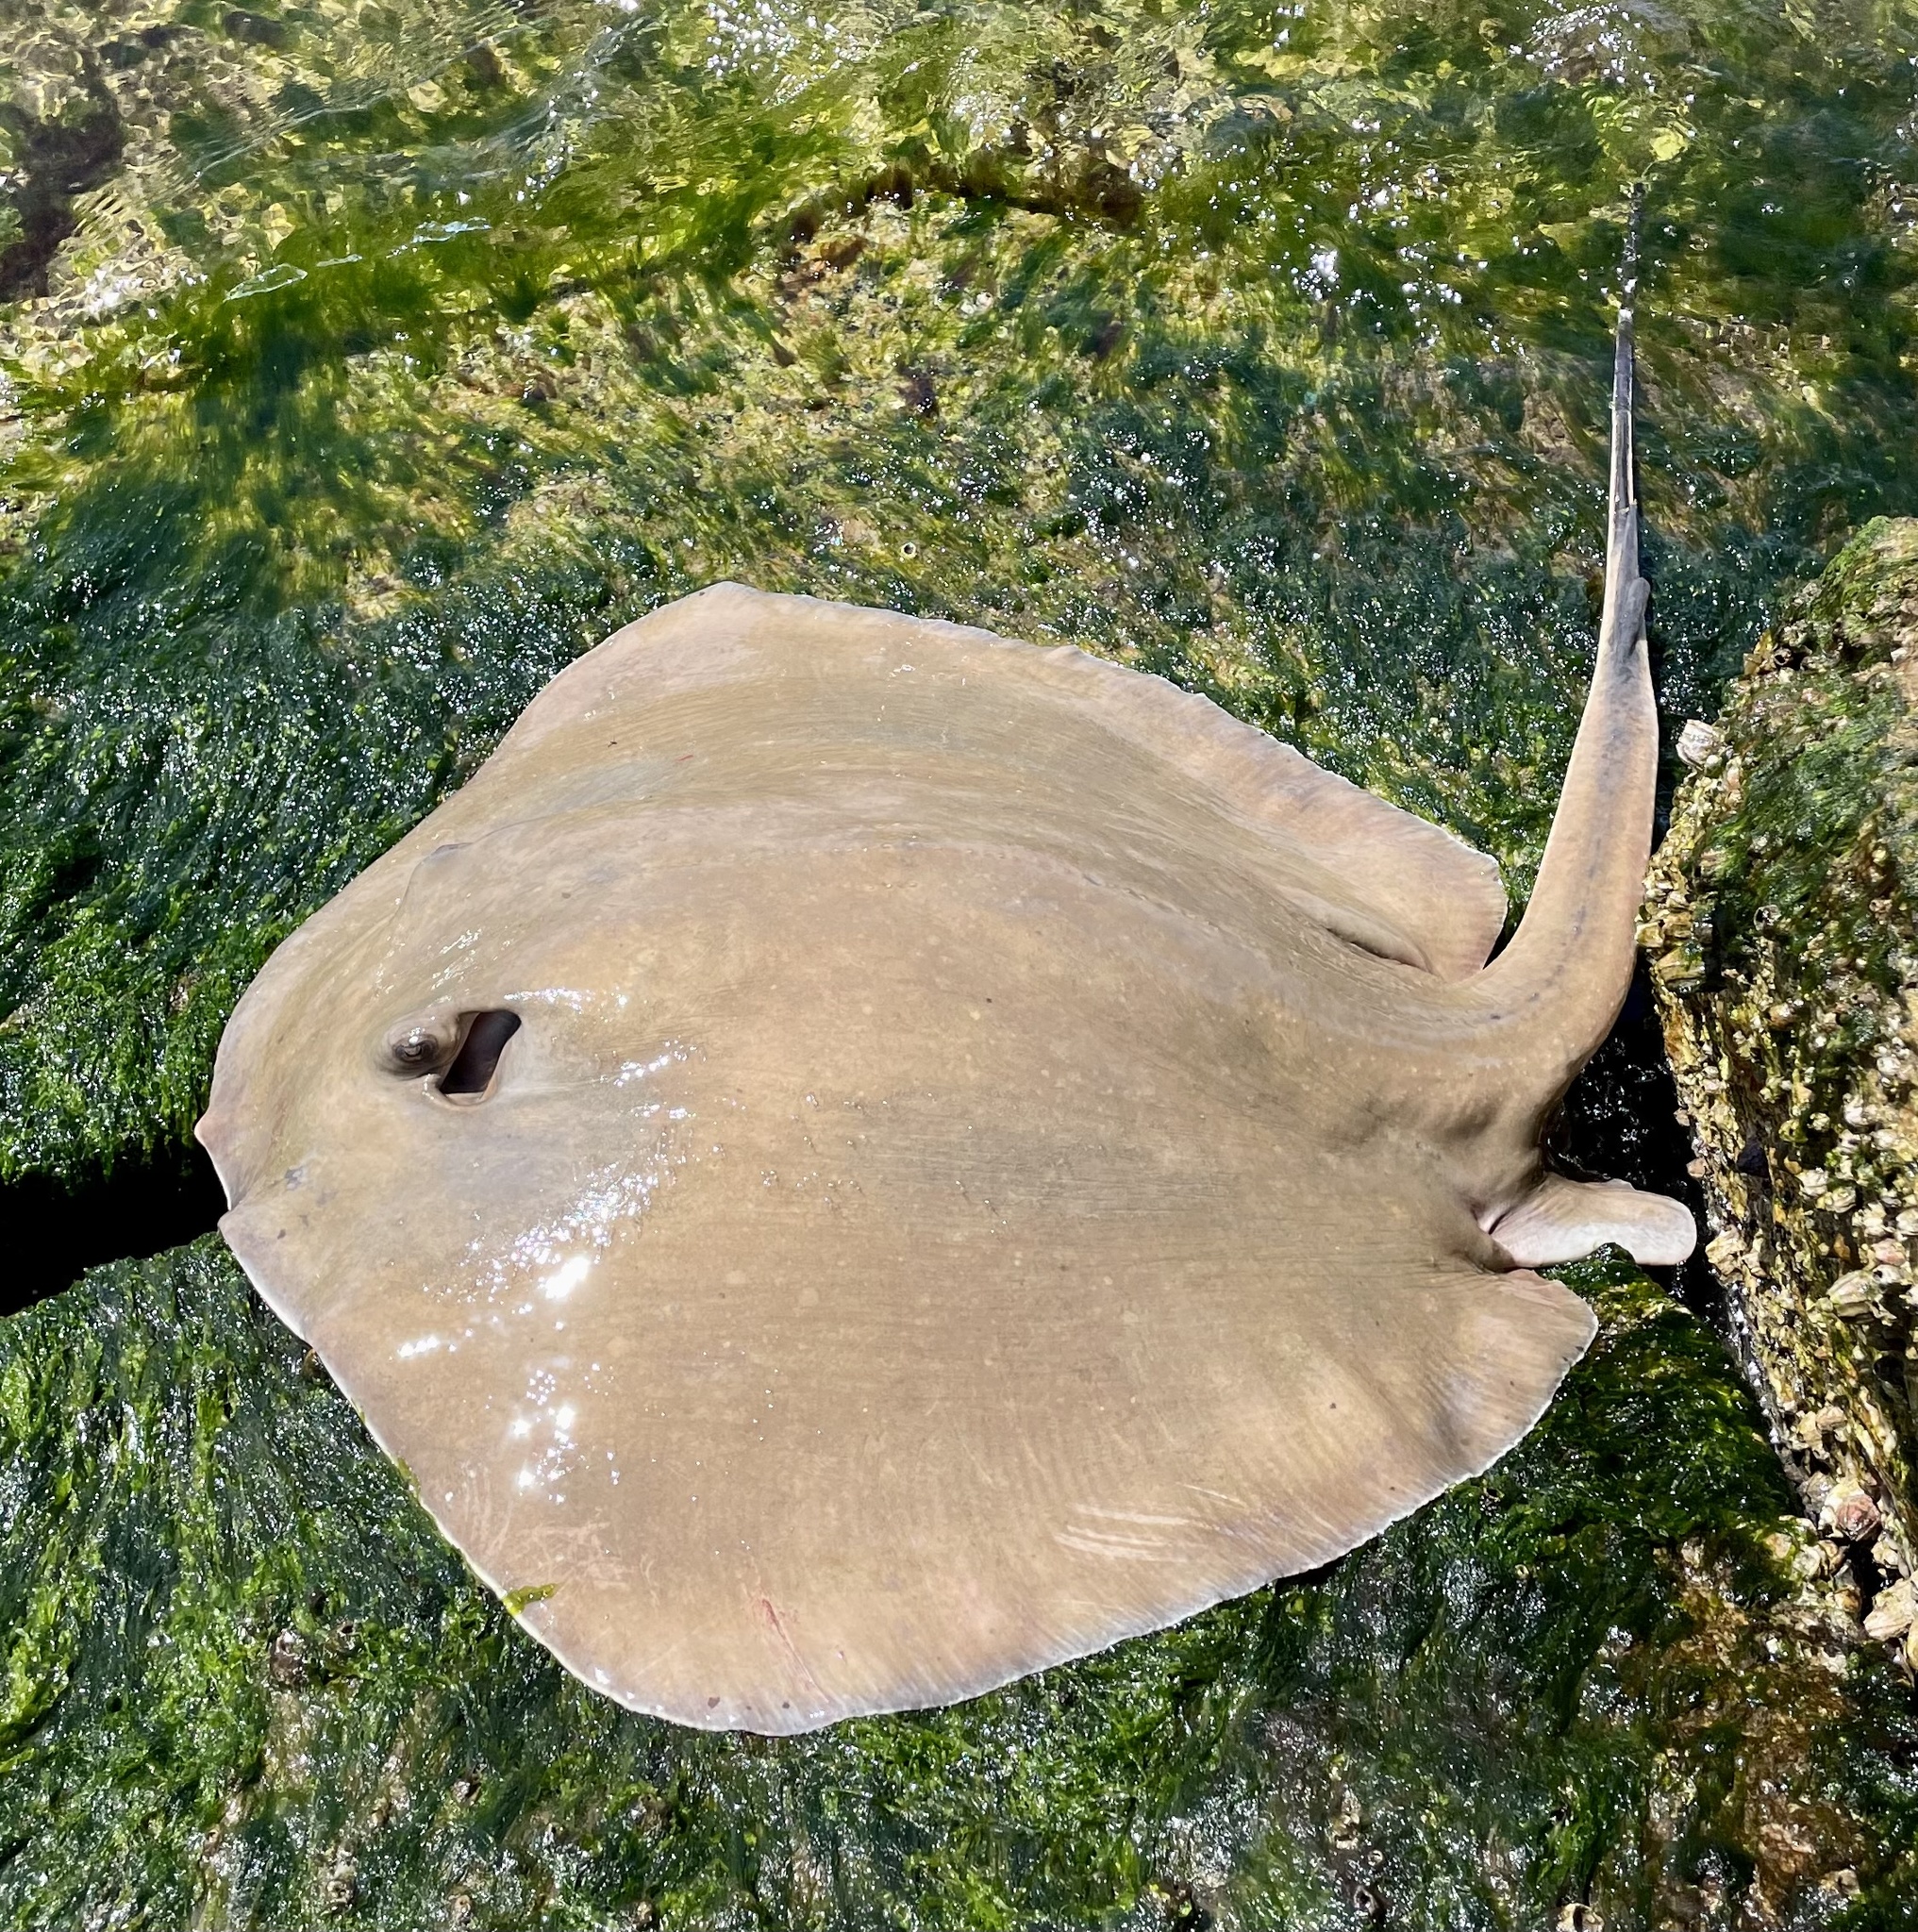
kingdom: Animalia
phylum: Chordata
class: Elasmobranchii
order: Myliobatiformes
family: Dasyatidae
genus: Hypanus
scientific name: Hypanus
